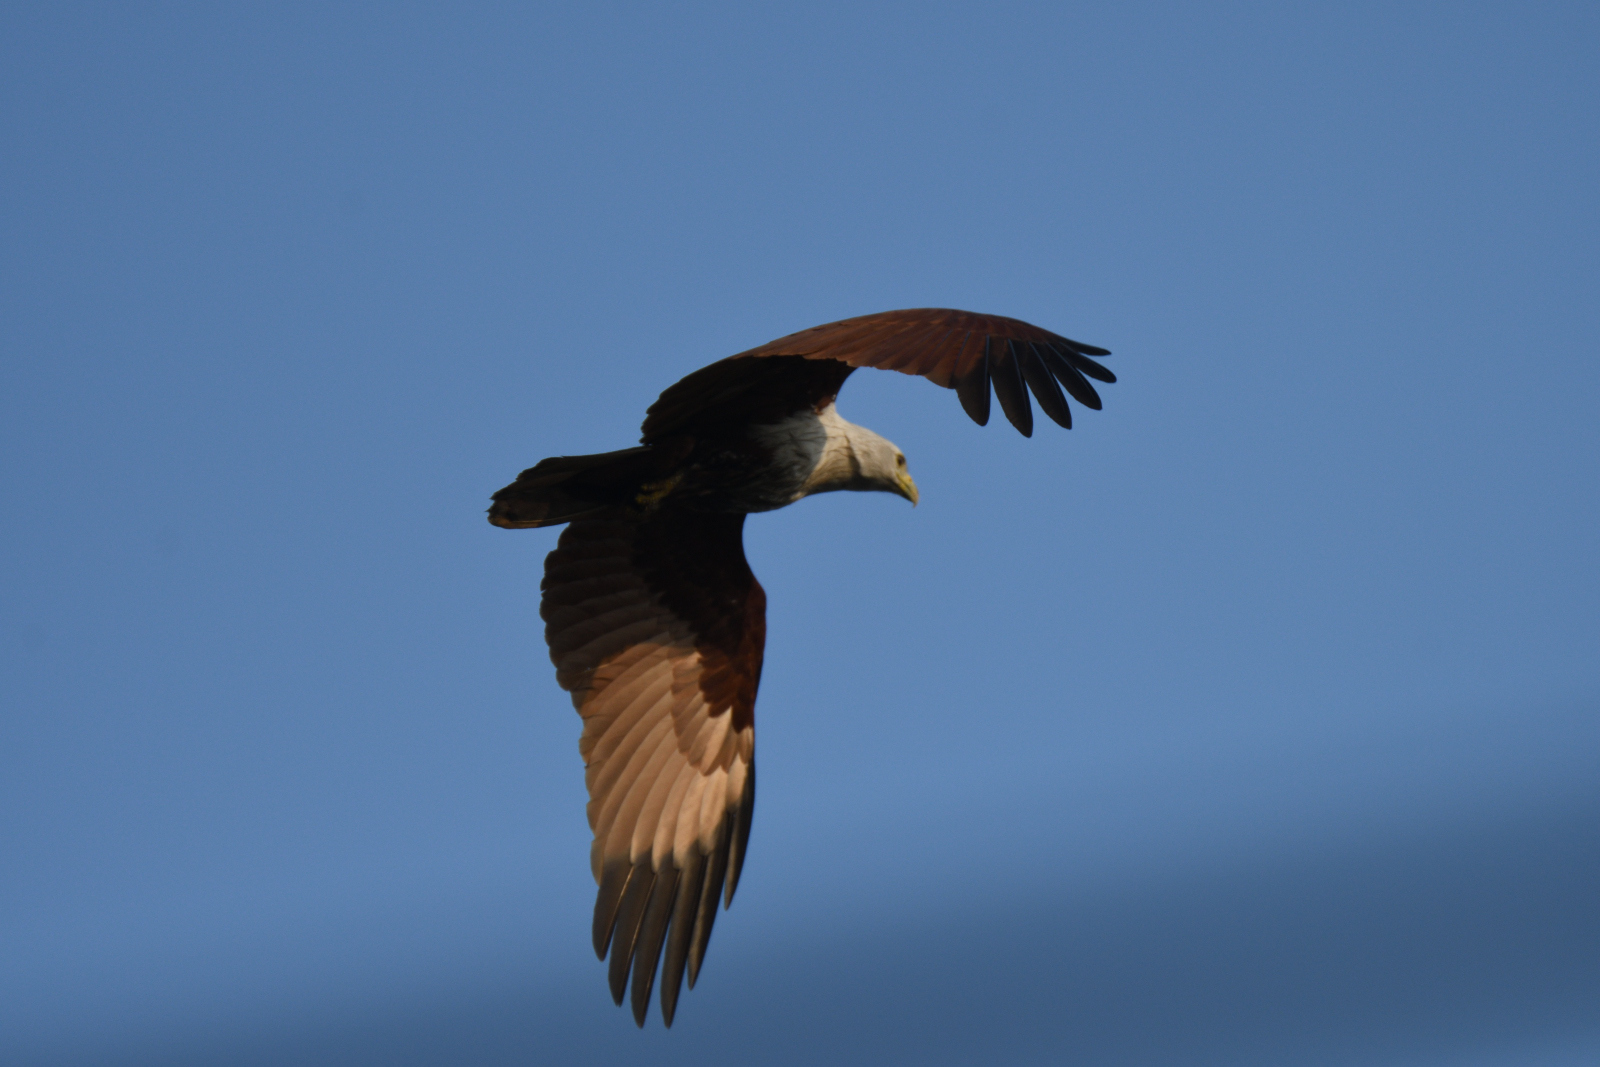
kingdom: Animalia
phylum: Chordata
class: Aves
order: Accipitriformes
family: Accipitridae
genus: Haliastur
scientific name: Haliastur indus
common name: Brahminy kite
